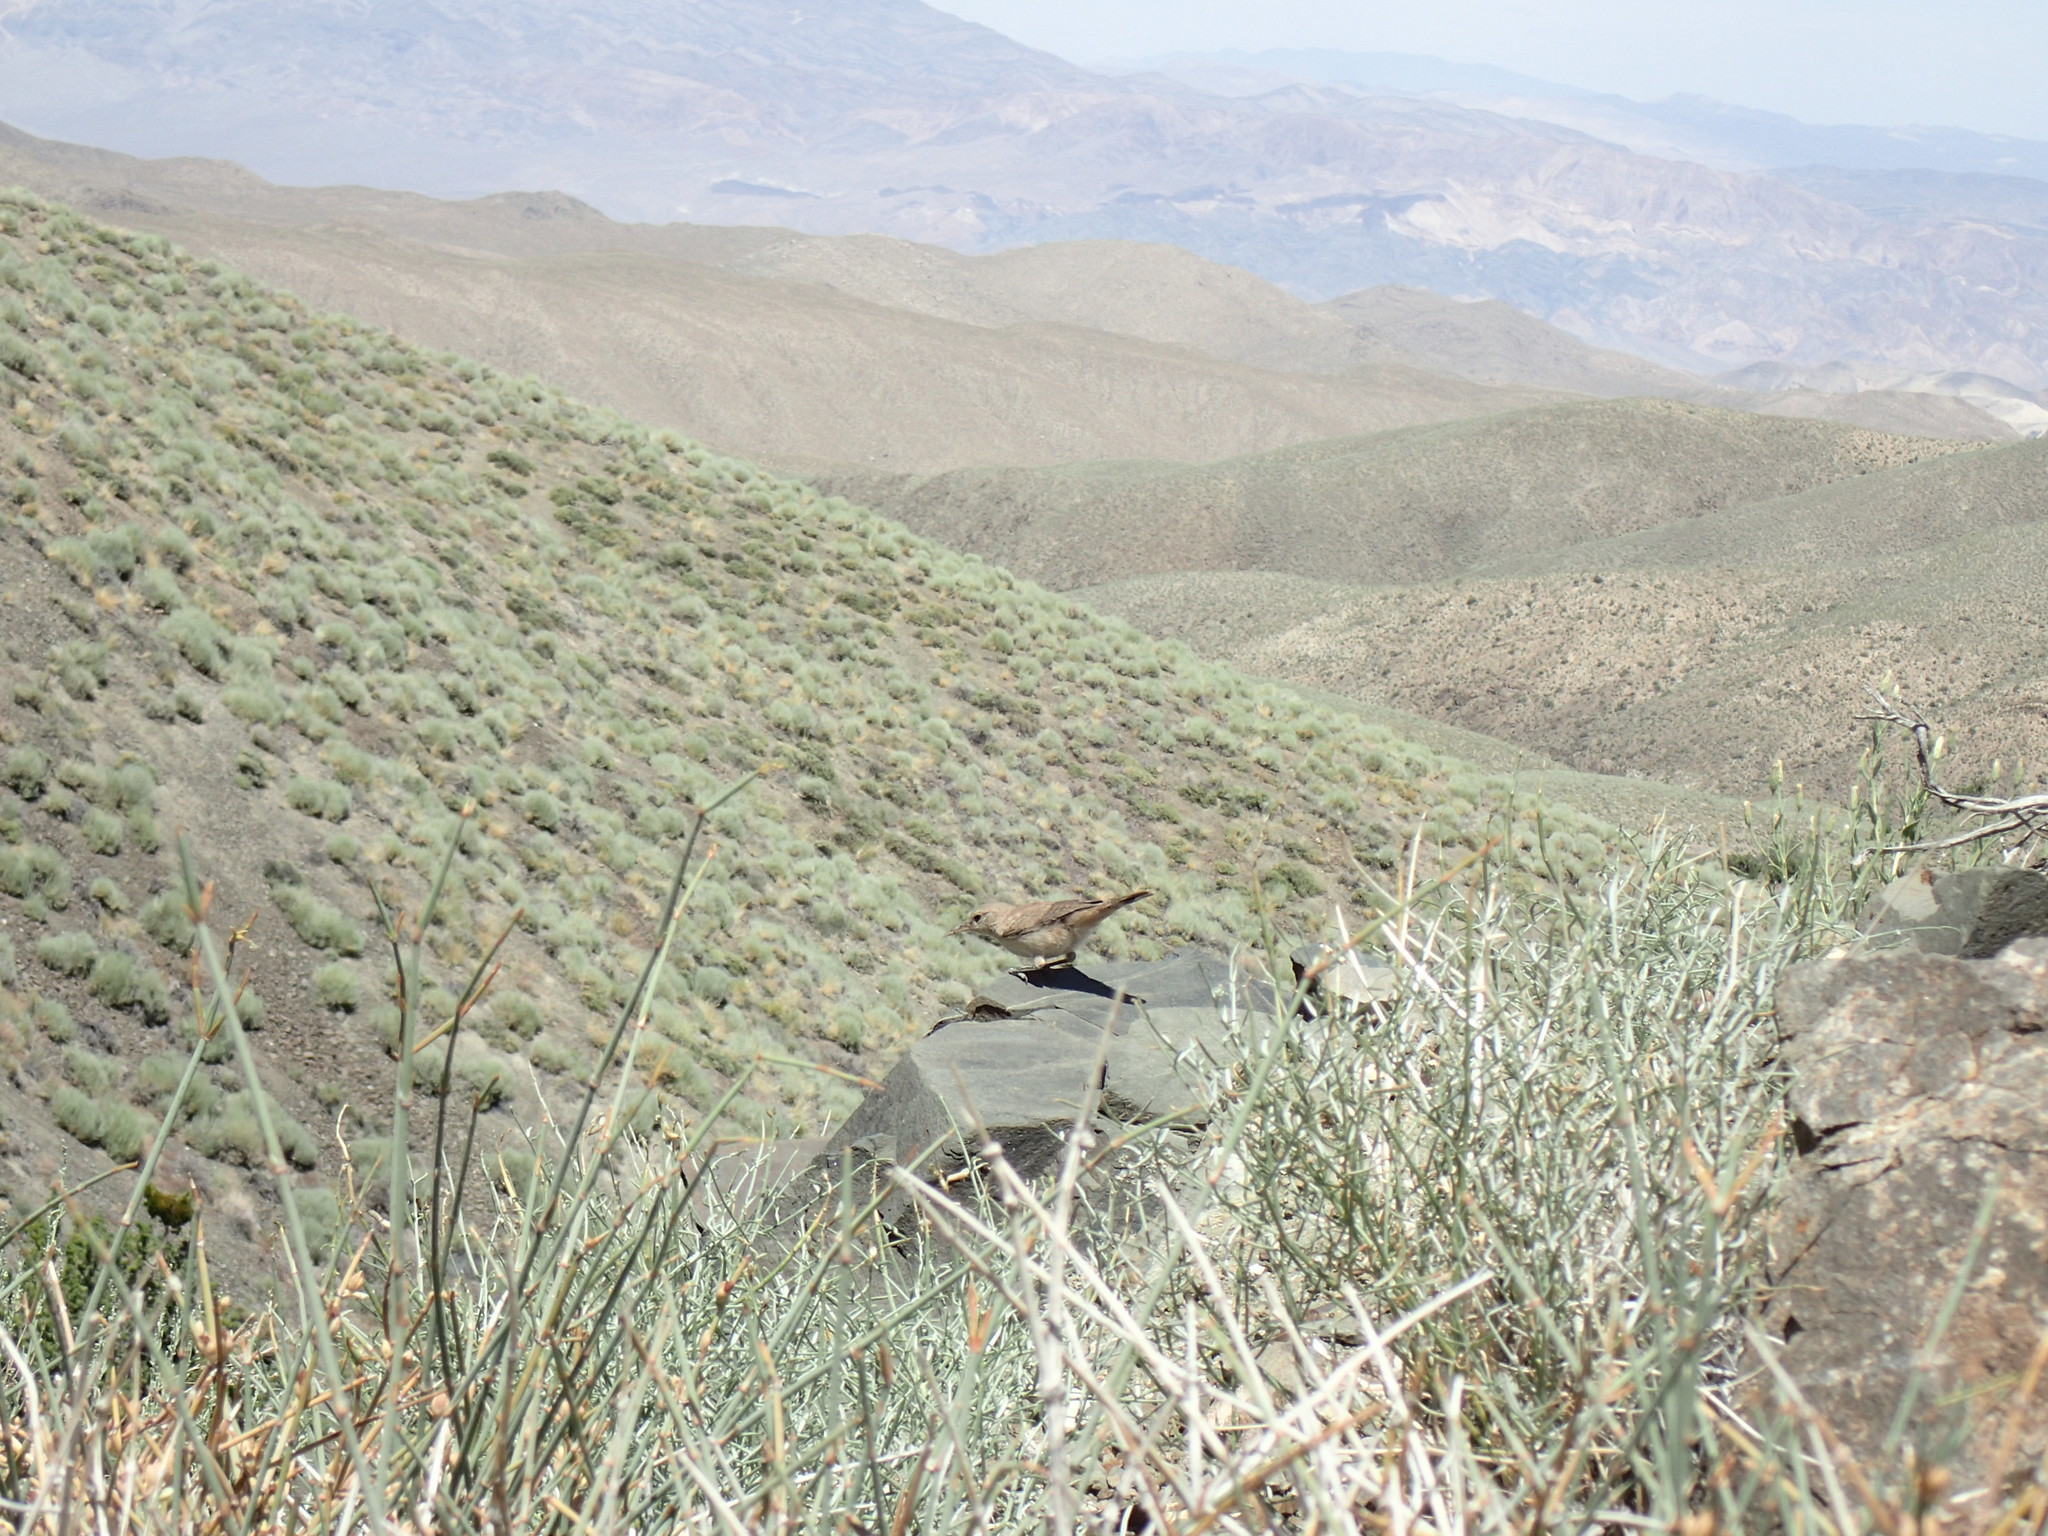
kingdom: Animalia
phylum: Chordata
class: Aves
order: Passeriformes
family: Troglodytidae
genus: Salpinctes
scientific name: Salpinctes obsoletus
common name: Rock wren
